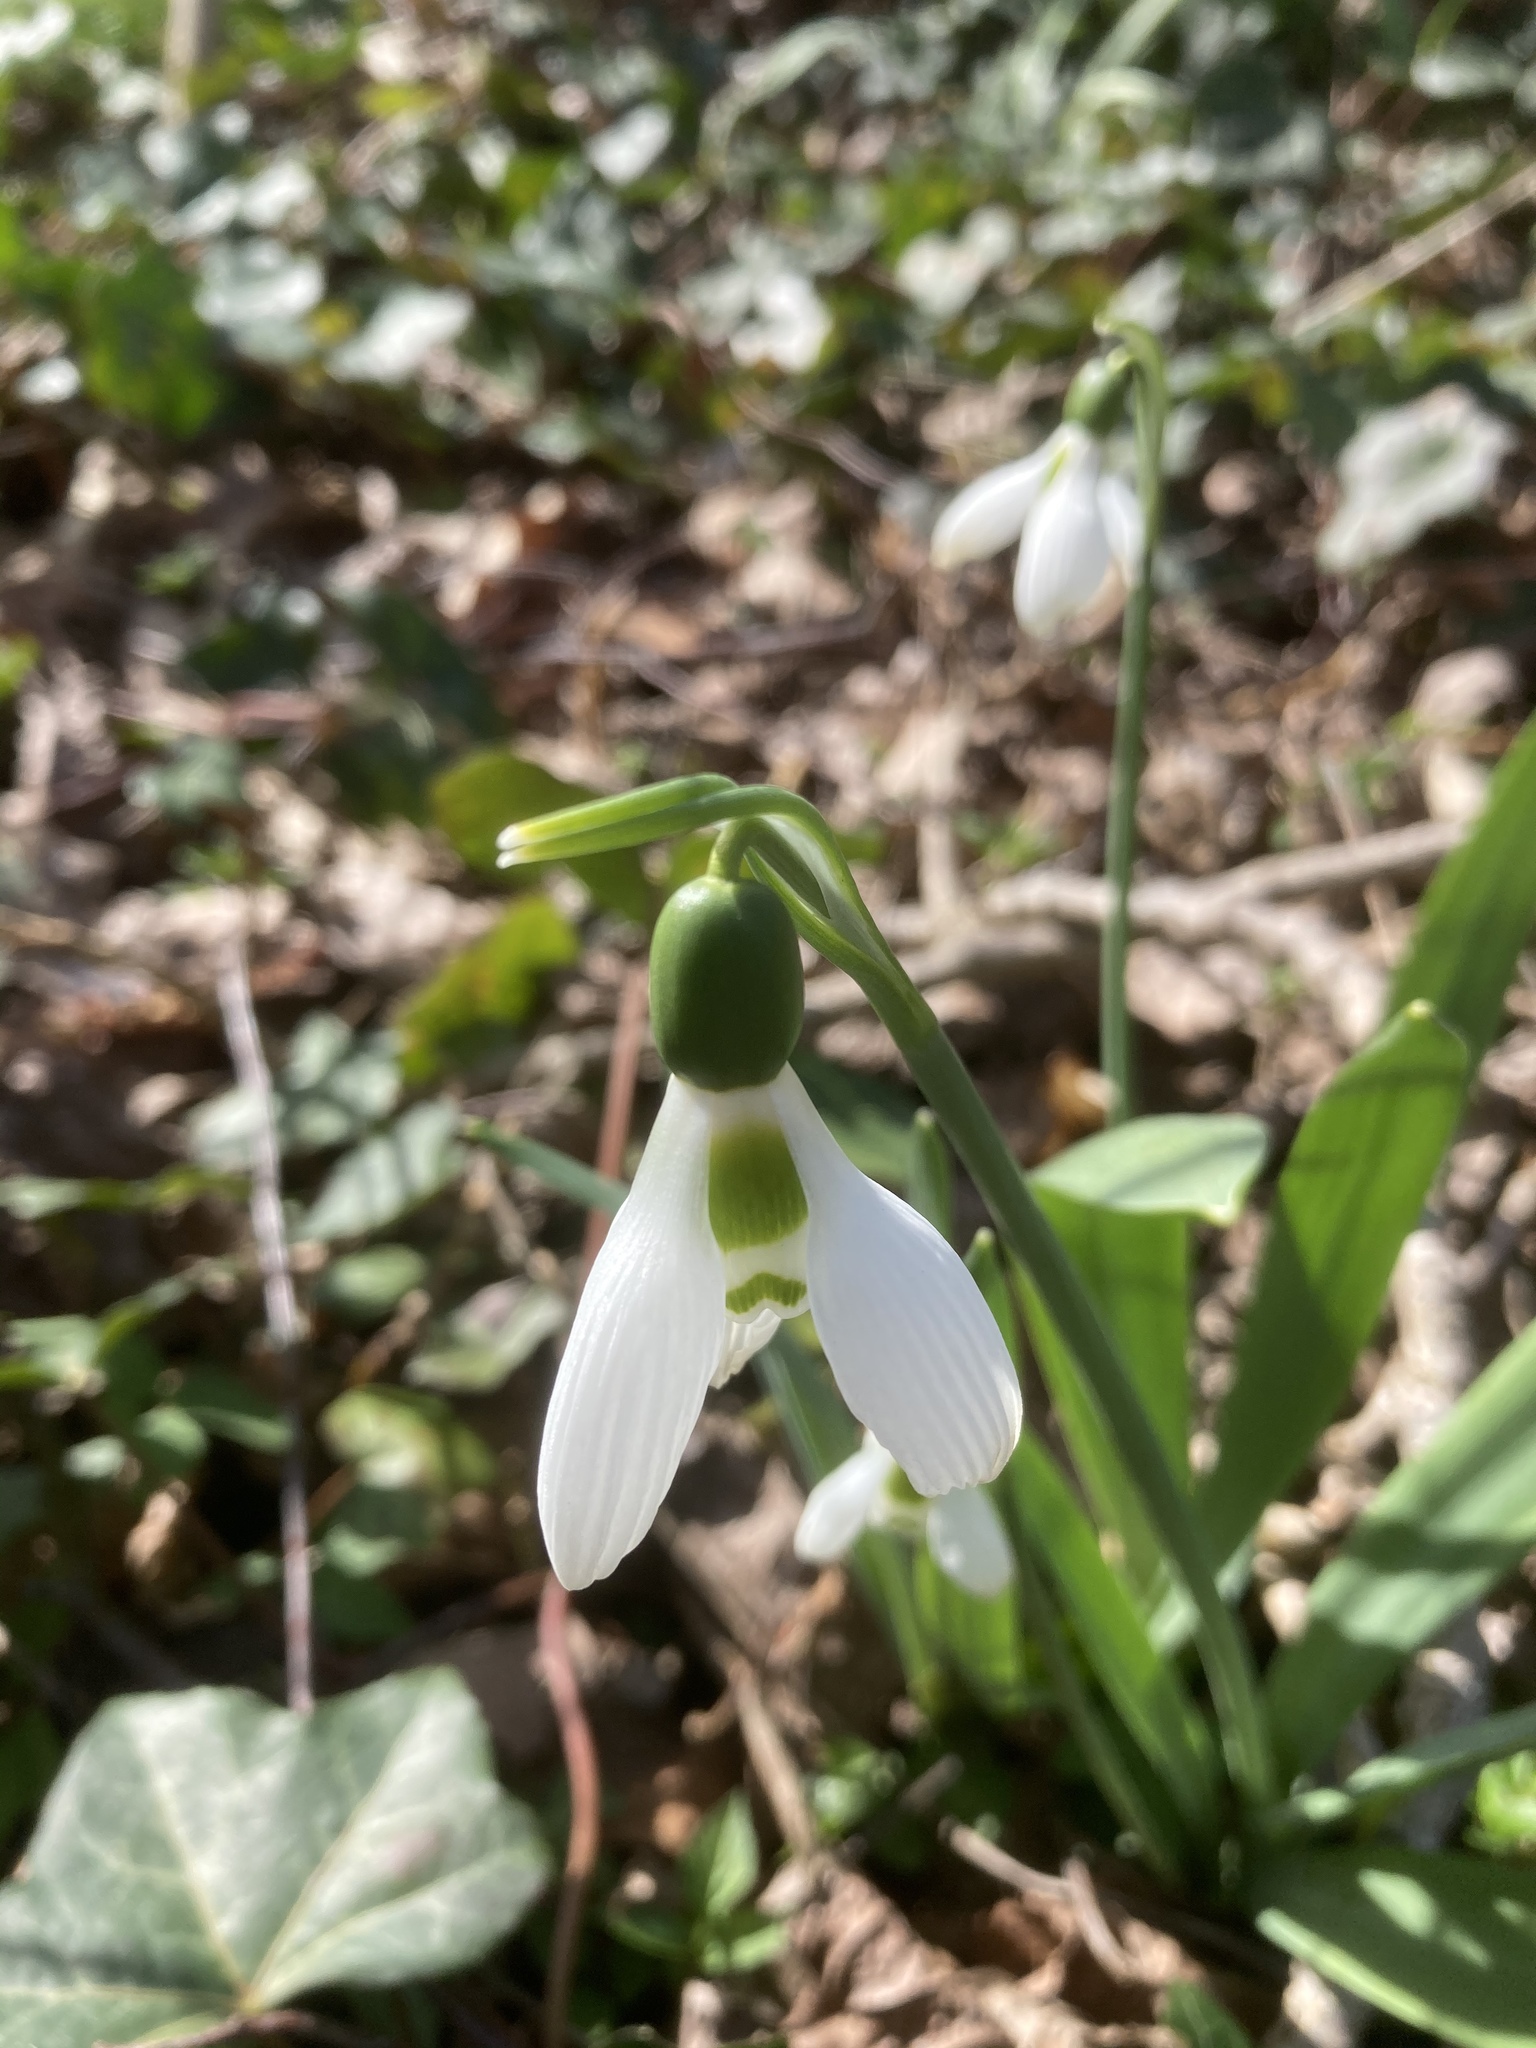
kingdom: Plantae
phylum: Tracheophyta
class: Liliopsida
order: Asparagales
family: Amaryllidaceae
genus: Galanthus
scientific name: Galanthus elwesii
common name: Greater snowdrop
